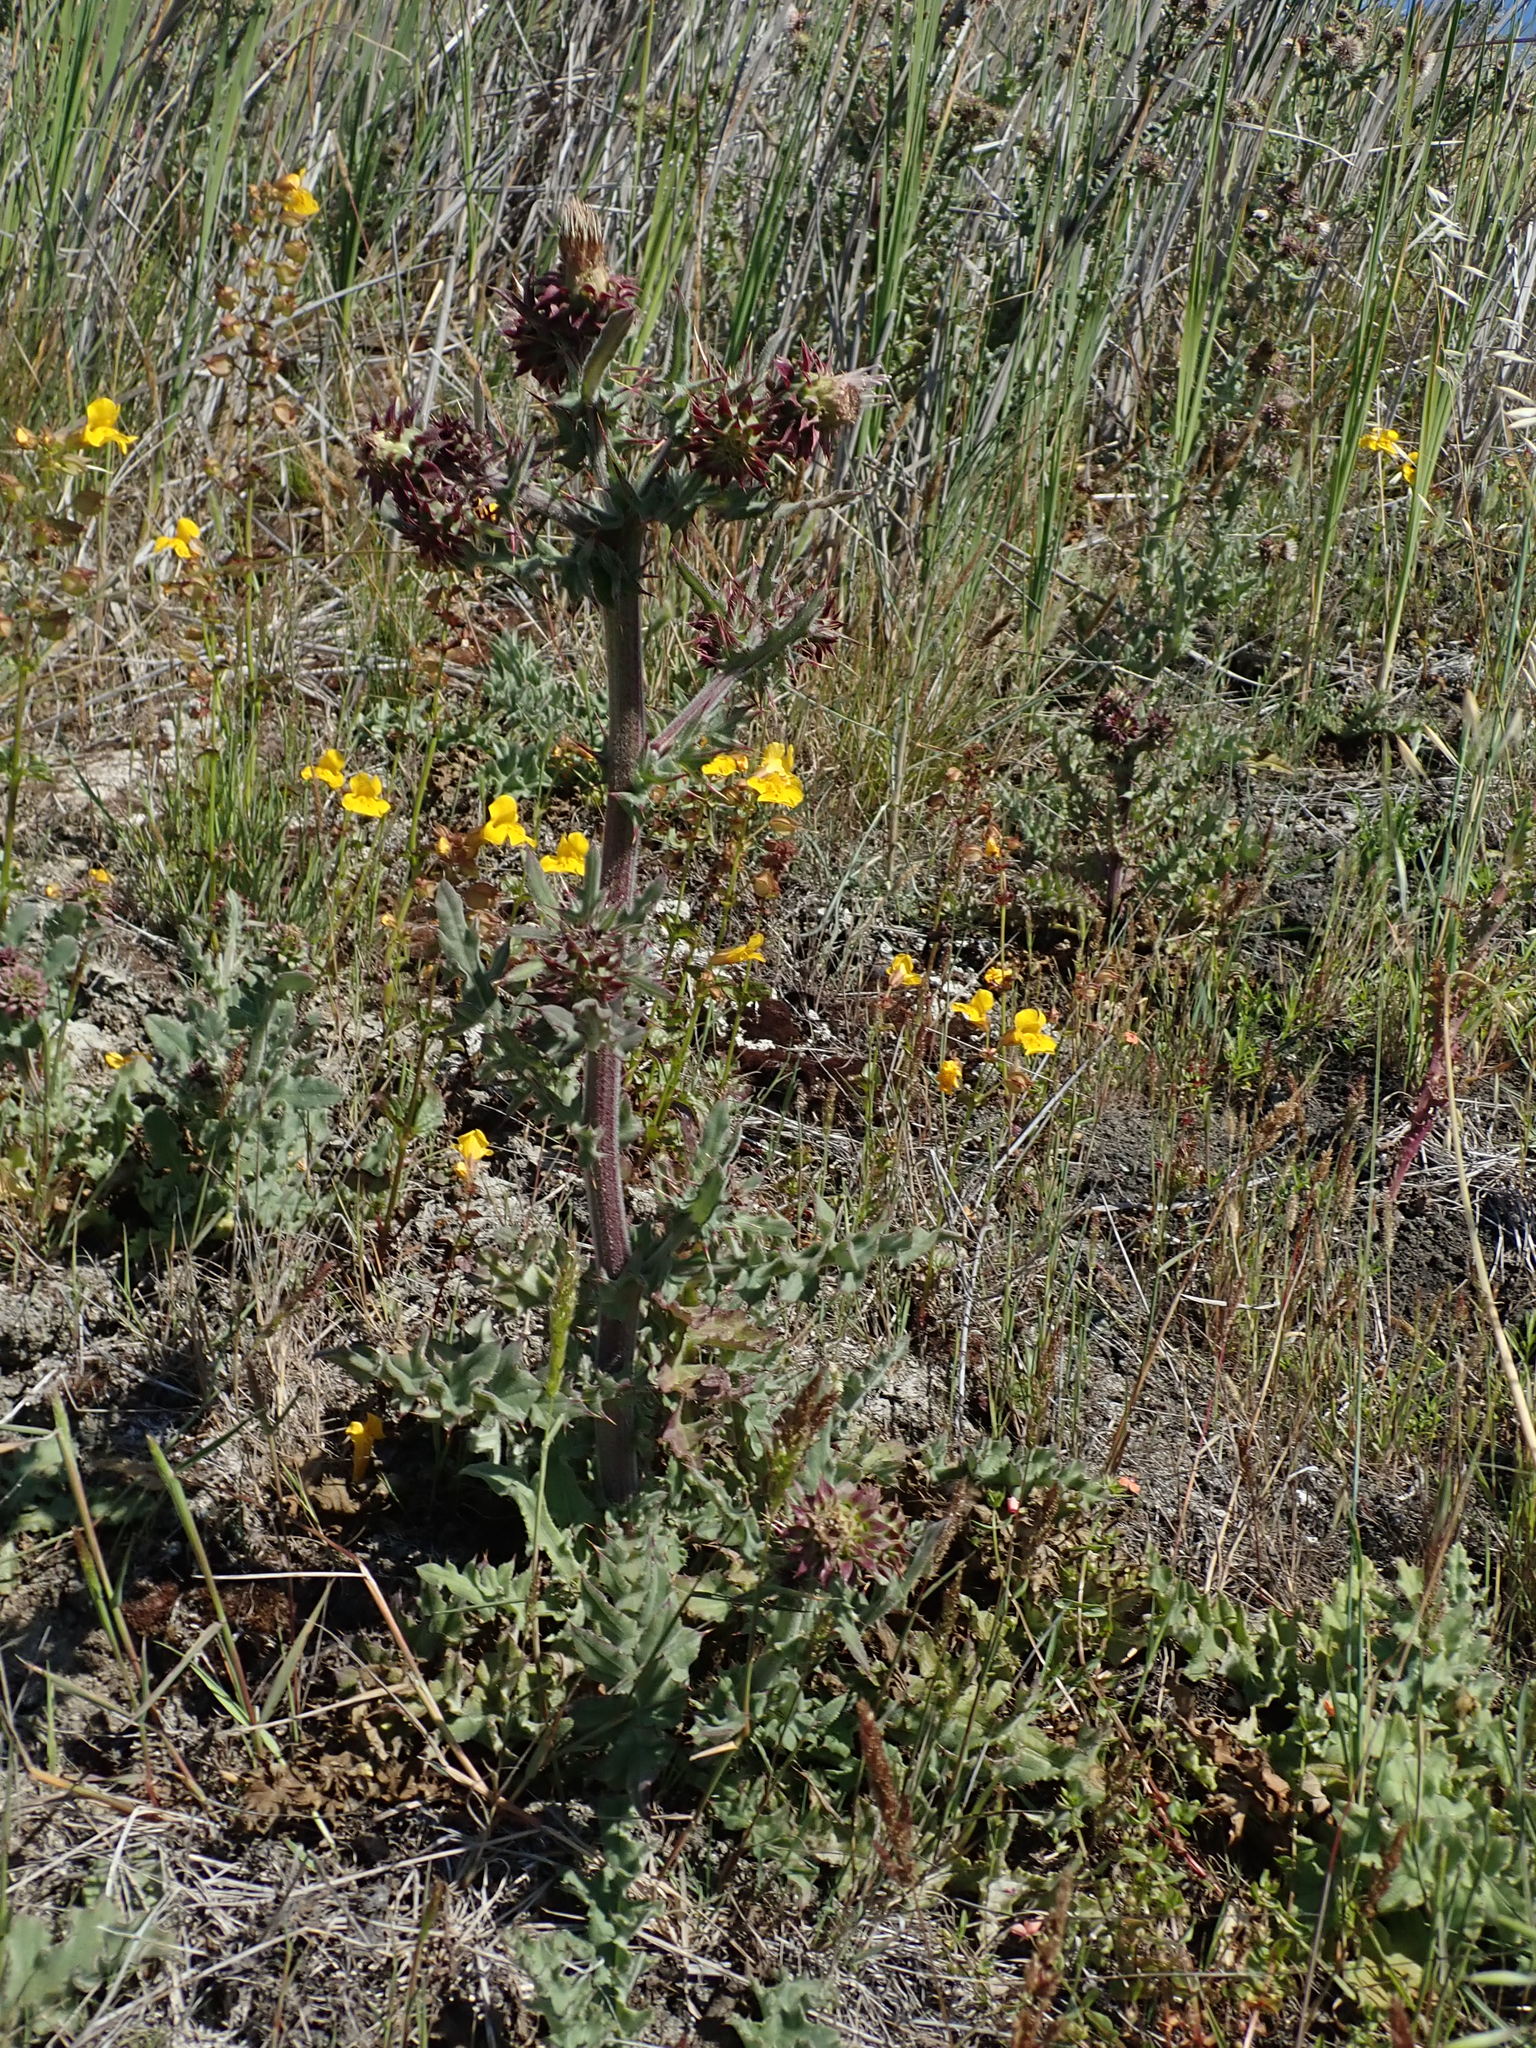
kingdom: Plantae
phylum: Tracheophyta
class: Magnoliopsida
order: Asterales
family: Asteraceae
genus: Cirsium
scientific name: Cirsium fontinale
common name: Fountain thistle
